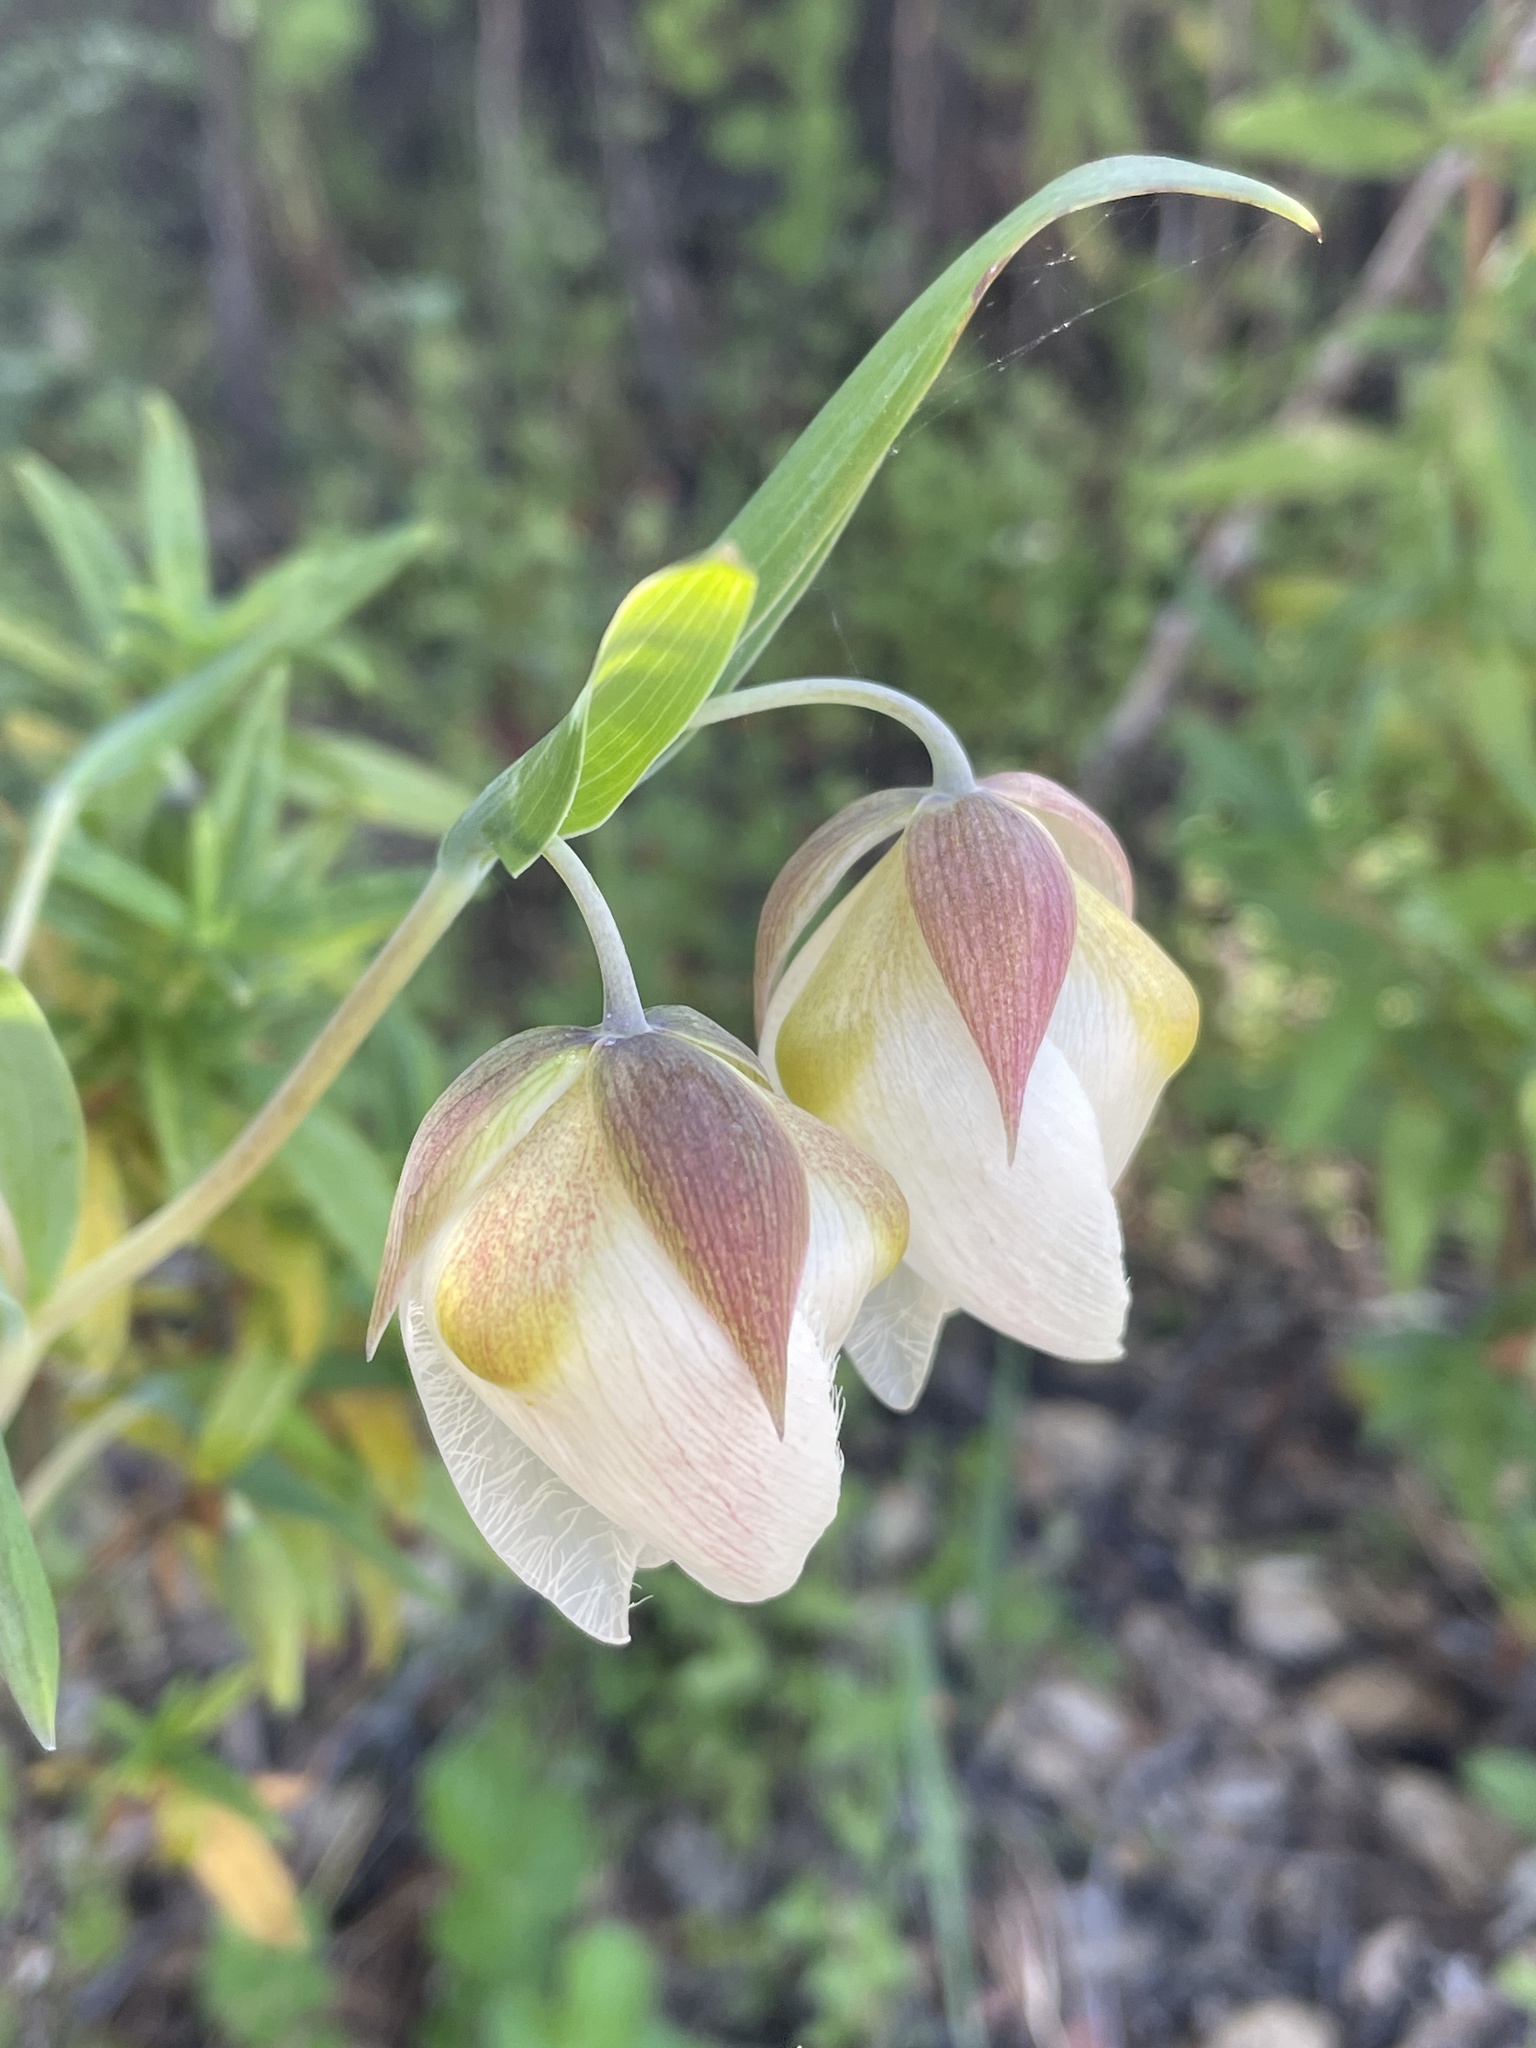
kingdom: Plantae
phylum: Tracheophyta
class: Liliopsida
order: Liliales
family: Liliaceae
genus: Calochortus
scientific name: Calochortus albus
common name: Fairy-lantern
